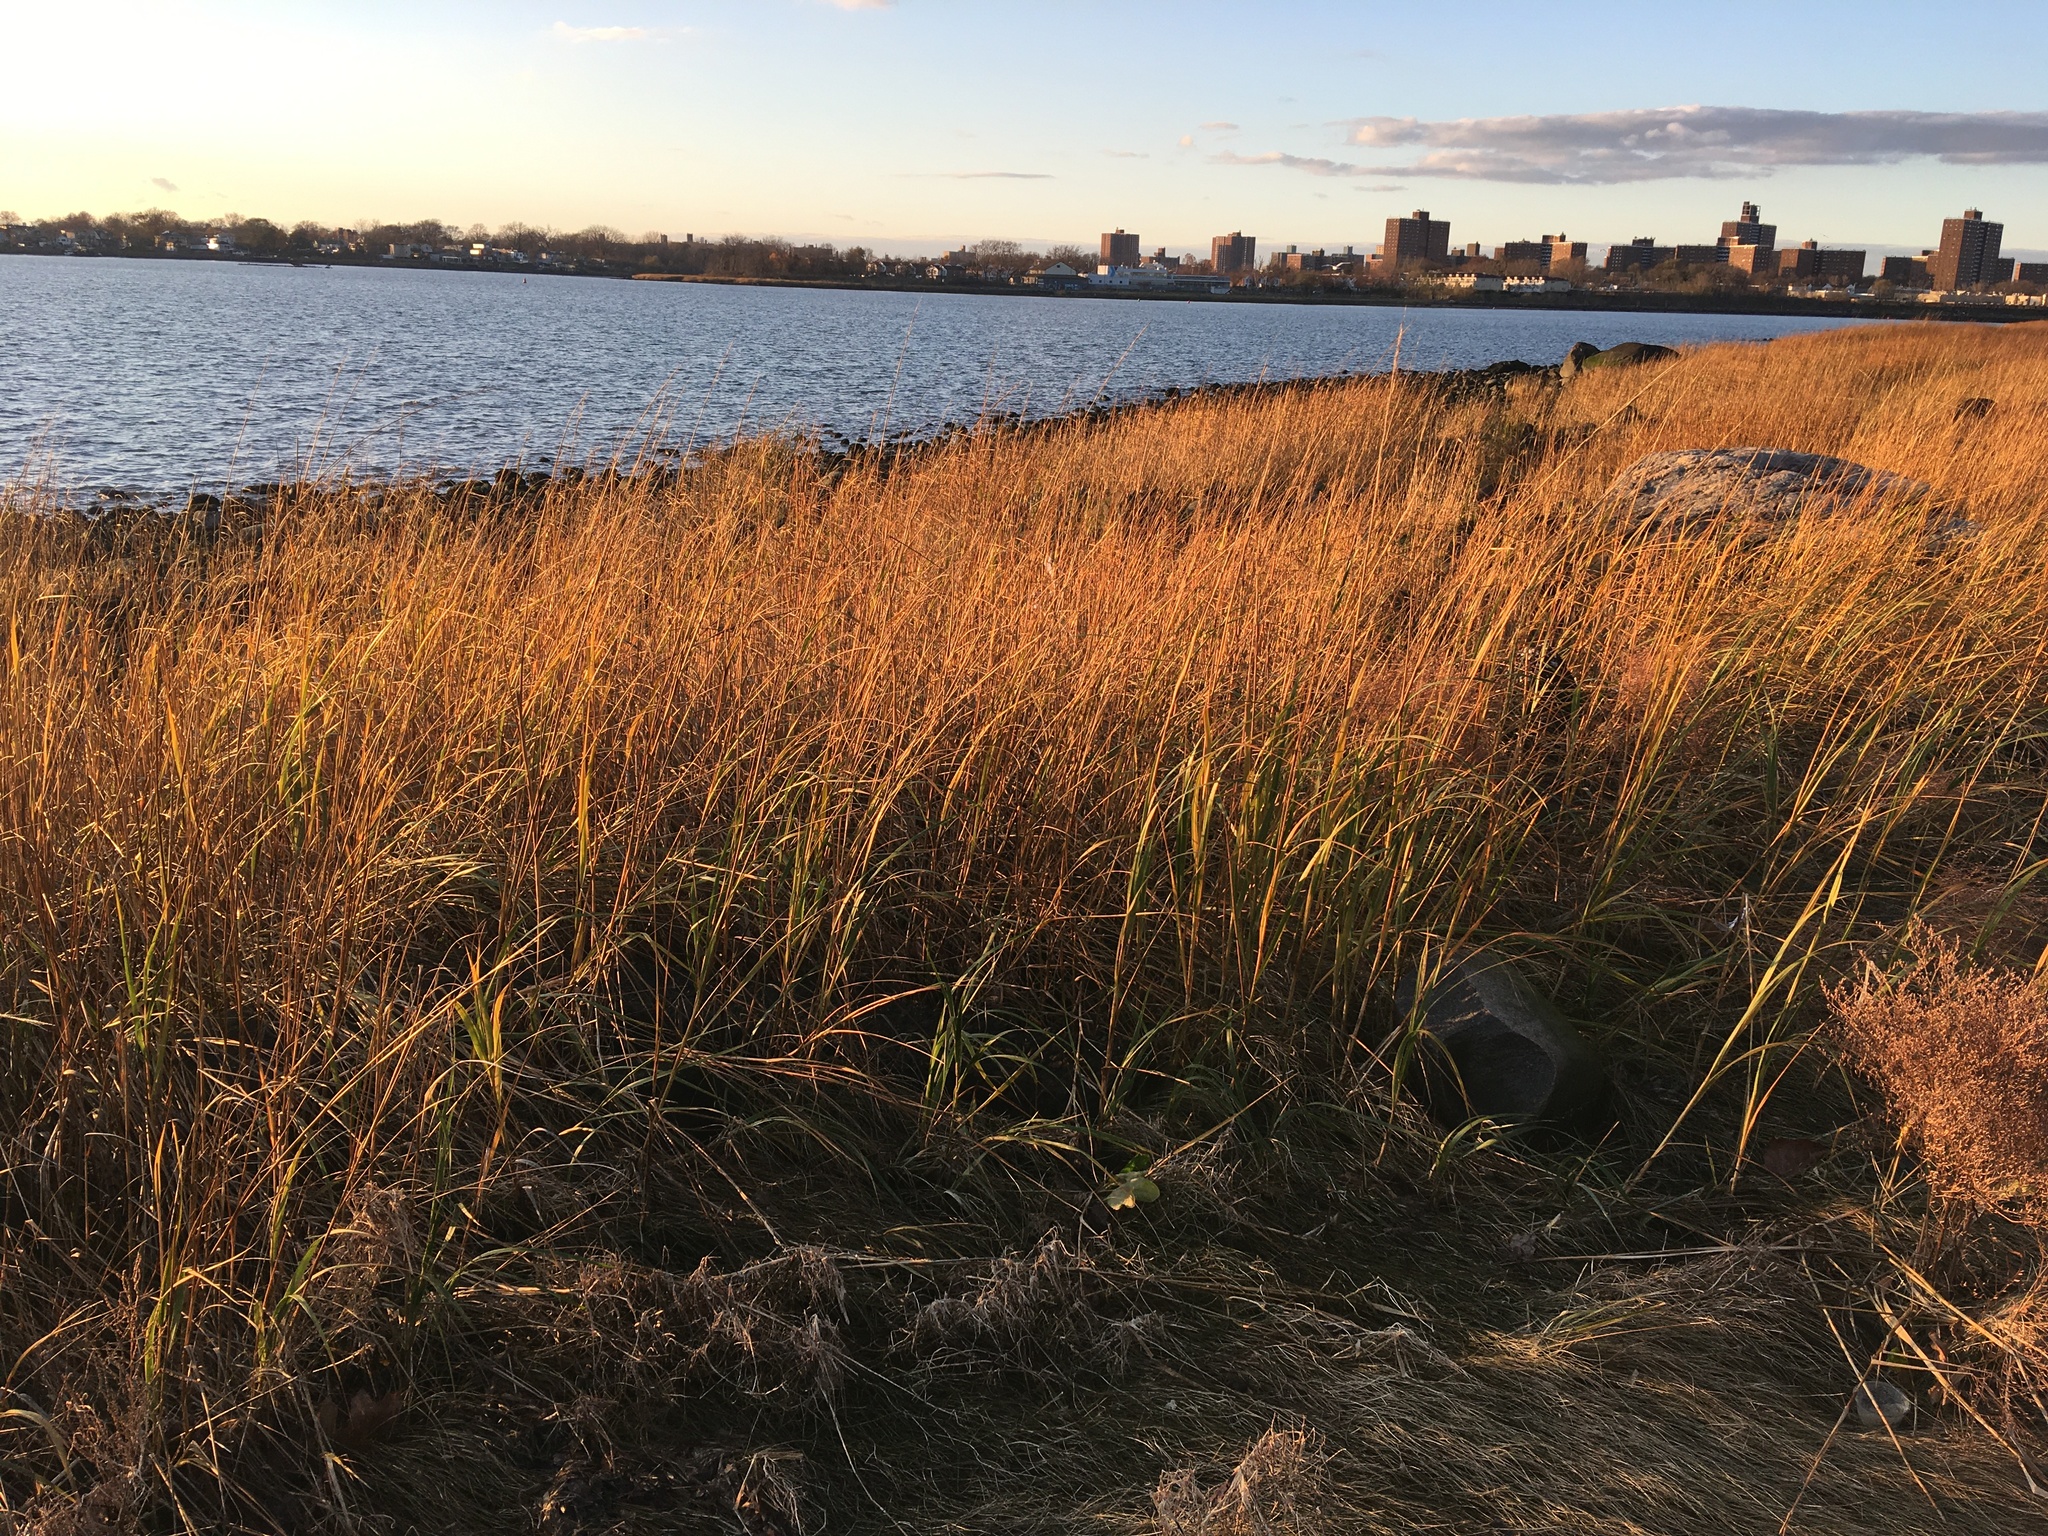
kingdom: Plantae
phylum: Tracheophyta
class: Liliopsida
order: Poales
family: Poaceae
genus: Sporobolus
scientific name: Sporobolus alterniflorus
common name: Atlantic cordgrass
